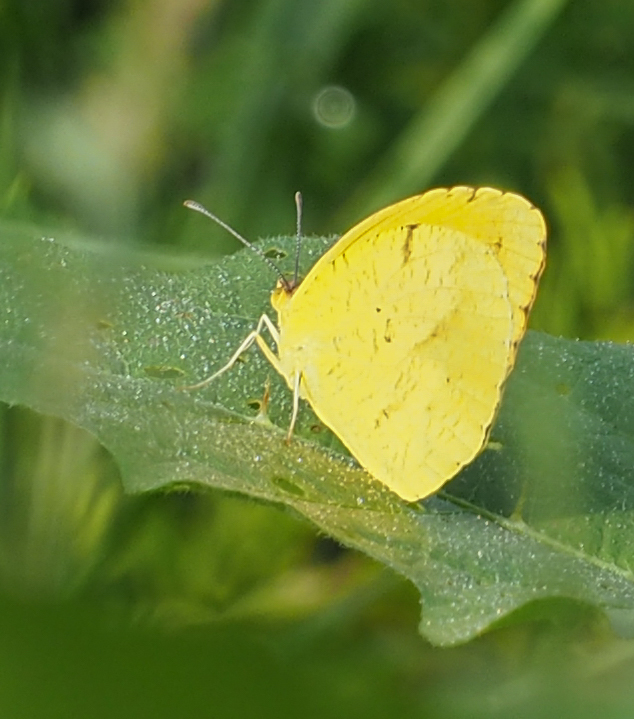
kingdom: Animalia
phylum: Arthropoda
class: Insecta
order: Lepidoptera
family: Pieridae
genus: Abaeis
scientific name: Abaeis nicippe
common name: Sleepy orange
